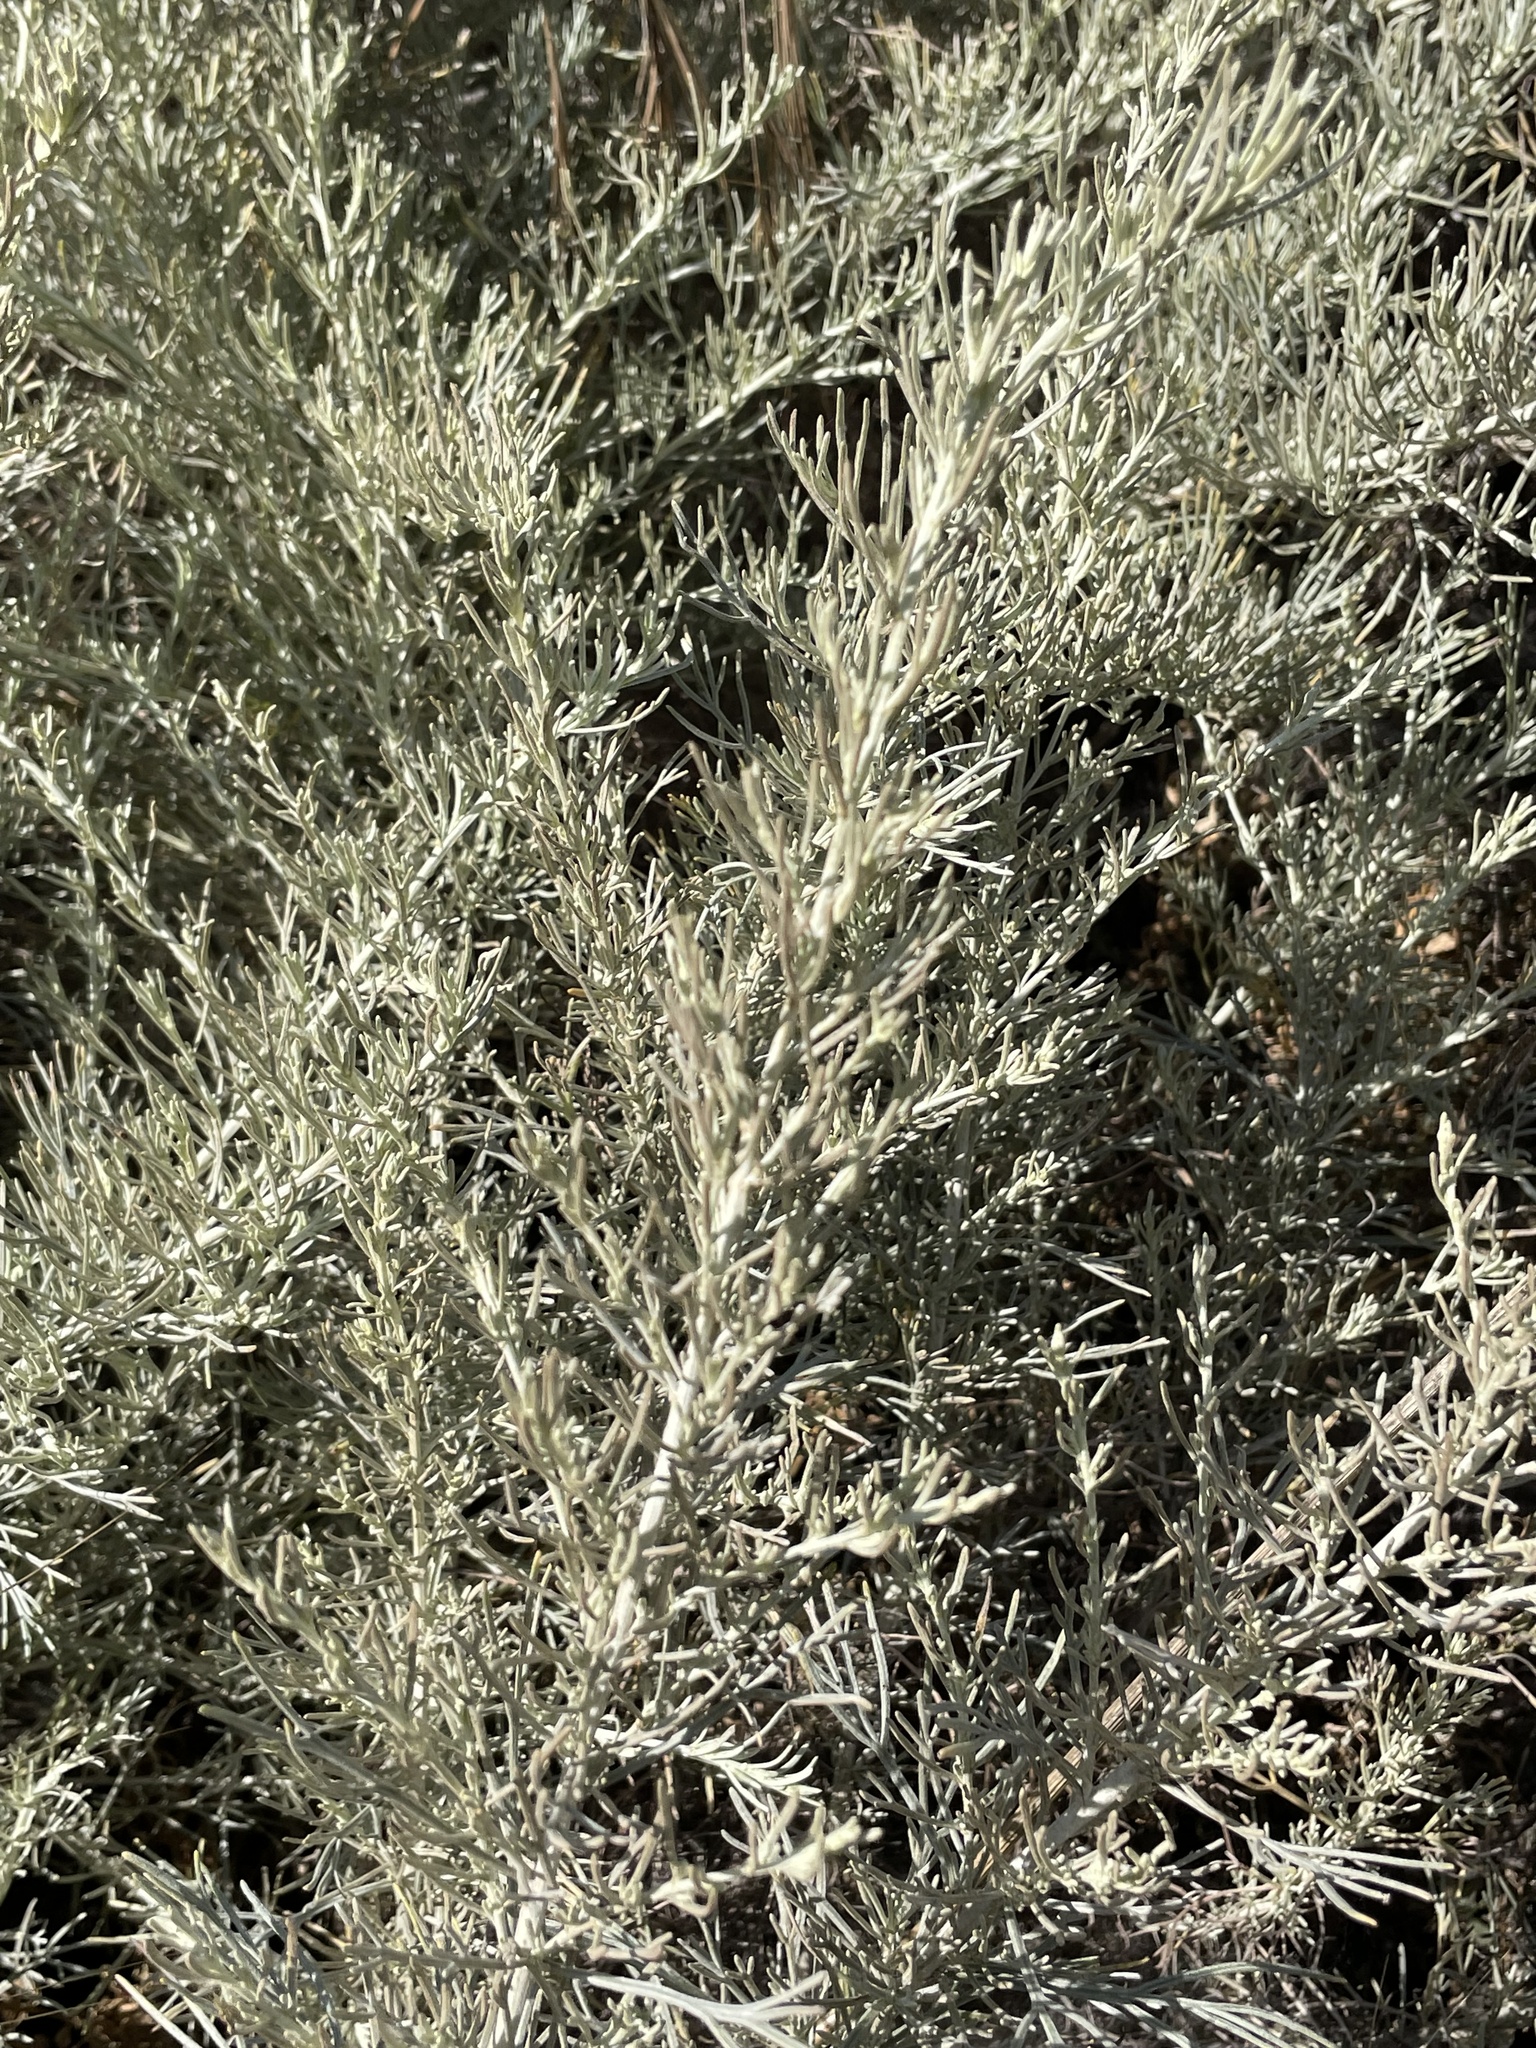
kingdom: Plantae
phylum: Tracheophyta
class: Magnoliopsida
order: Asterales
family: Asteraceae
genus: Artemisia
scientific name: Artemisia californica
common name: California sagebrush
